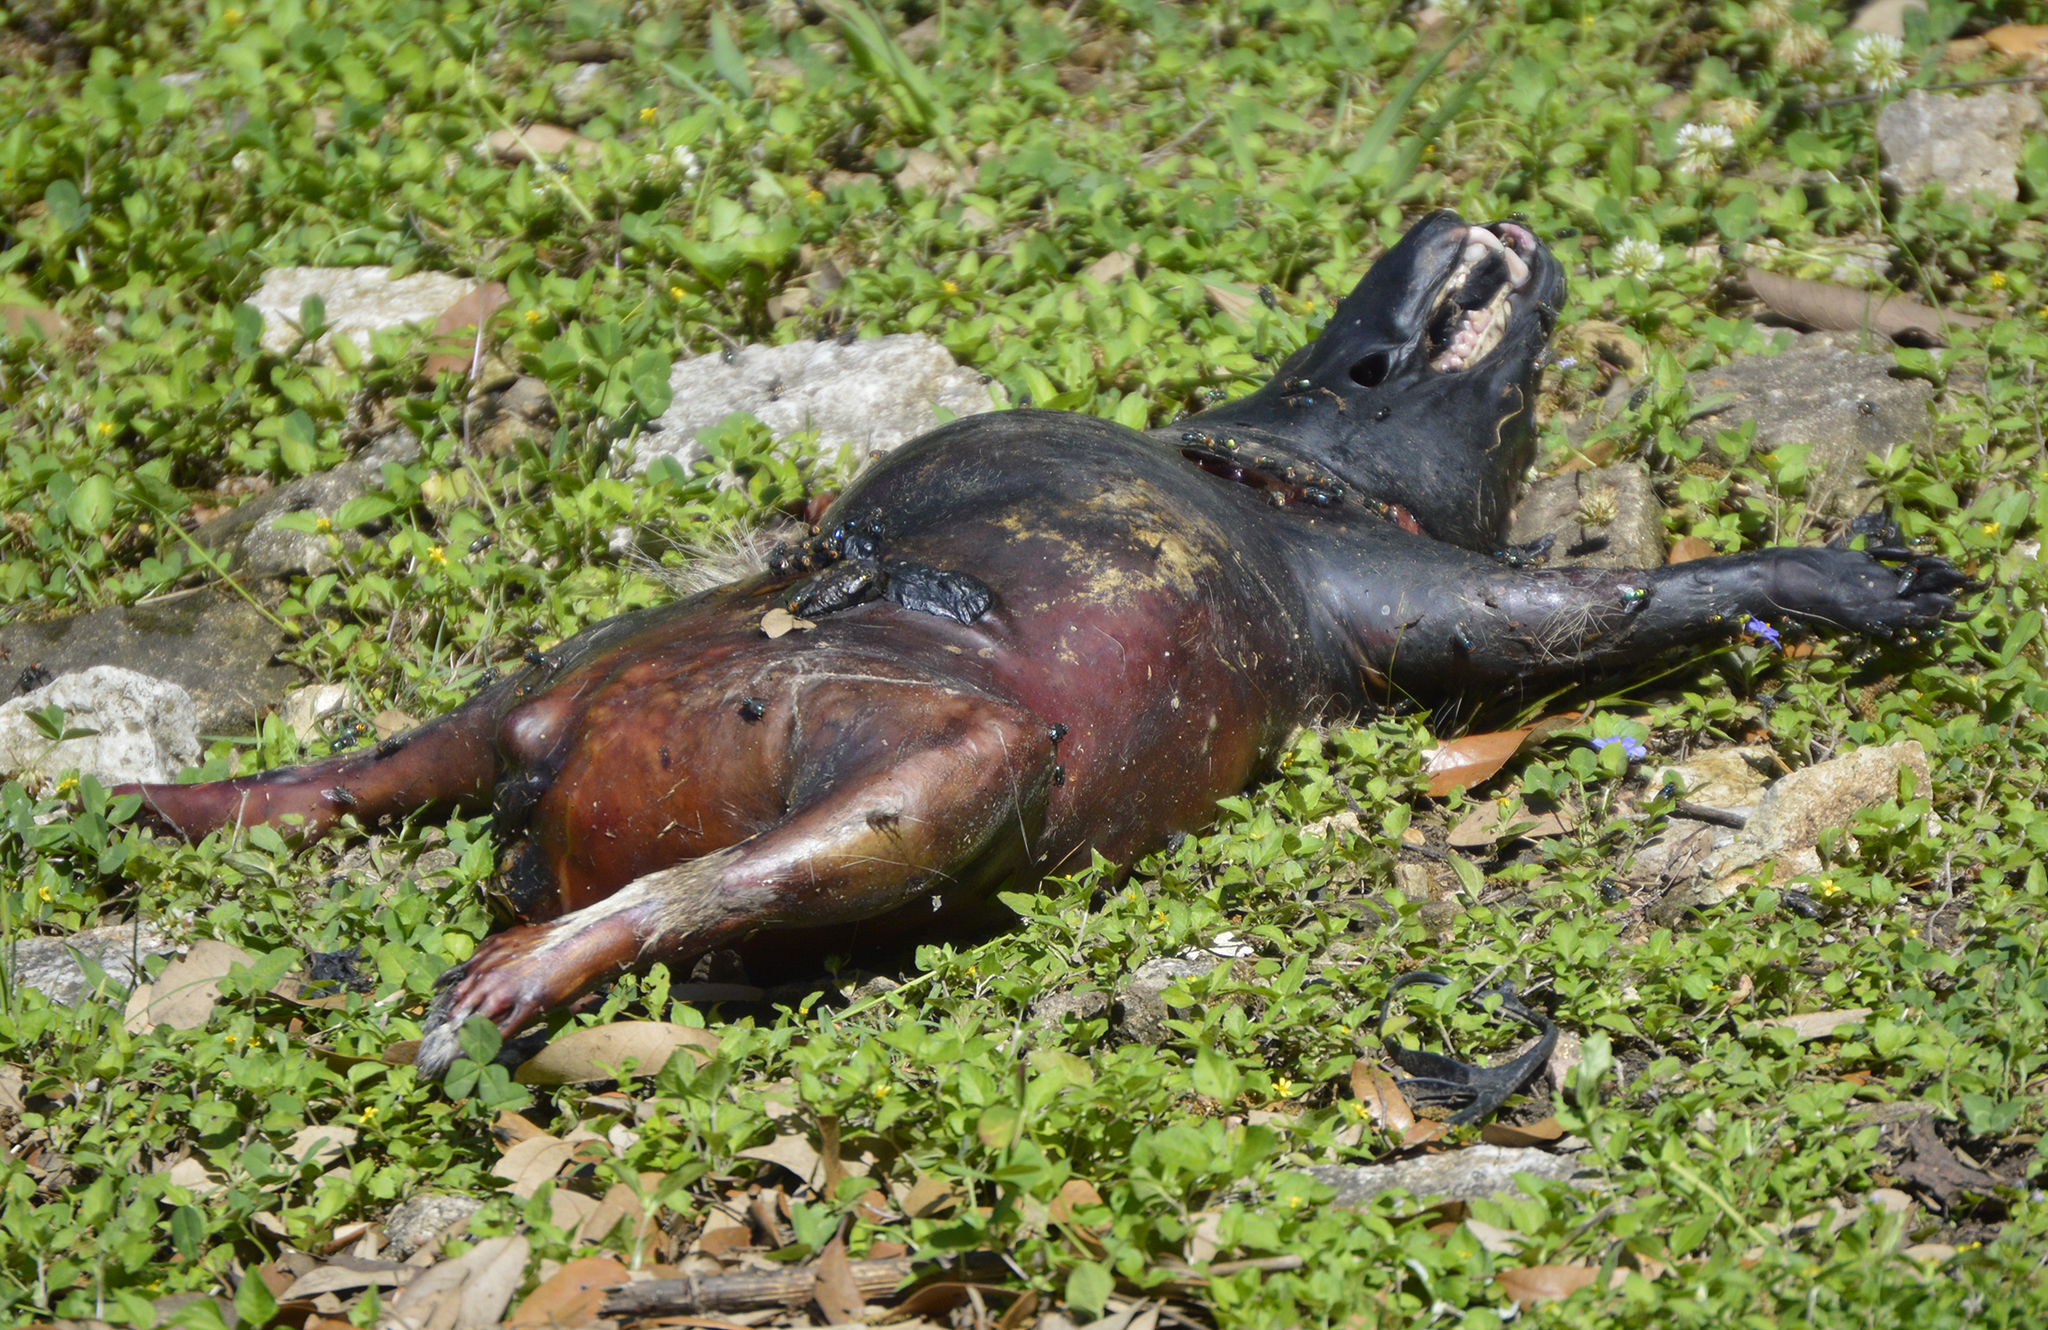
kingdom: Animalia
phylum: Chordata
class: Mammalia
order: Carnivora
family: Procyonidae
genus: Procyon
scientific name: Procyon lotor
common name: Raccoon
